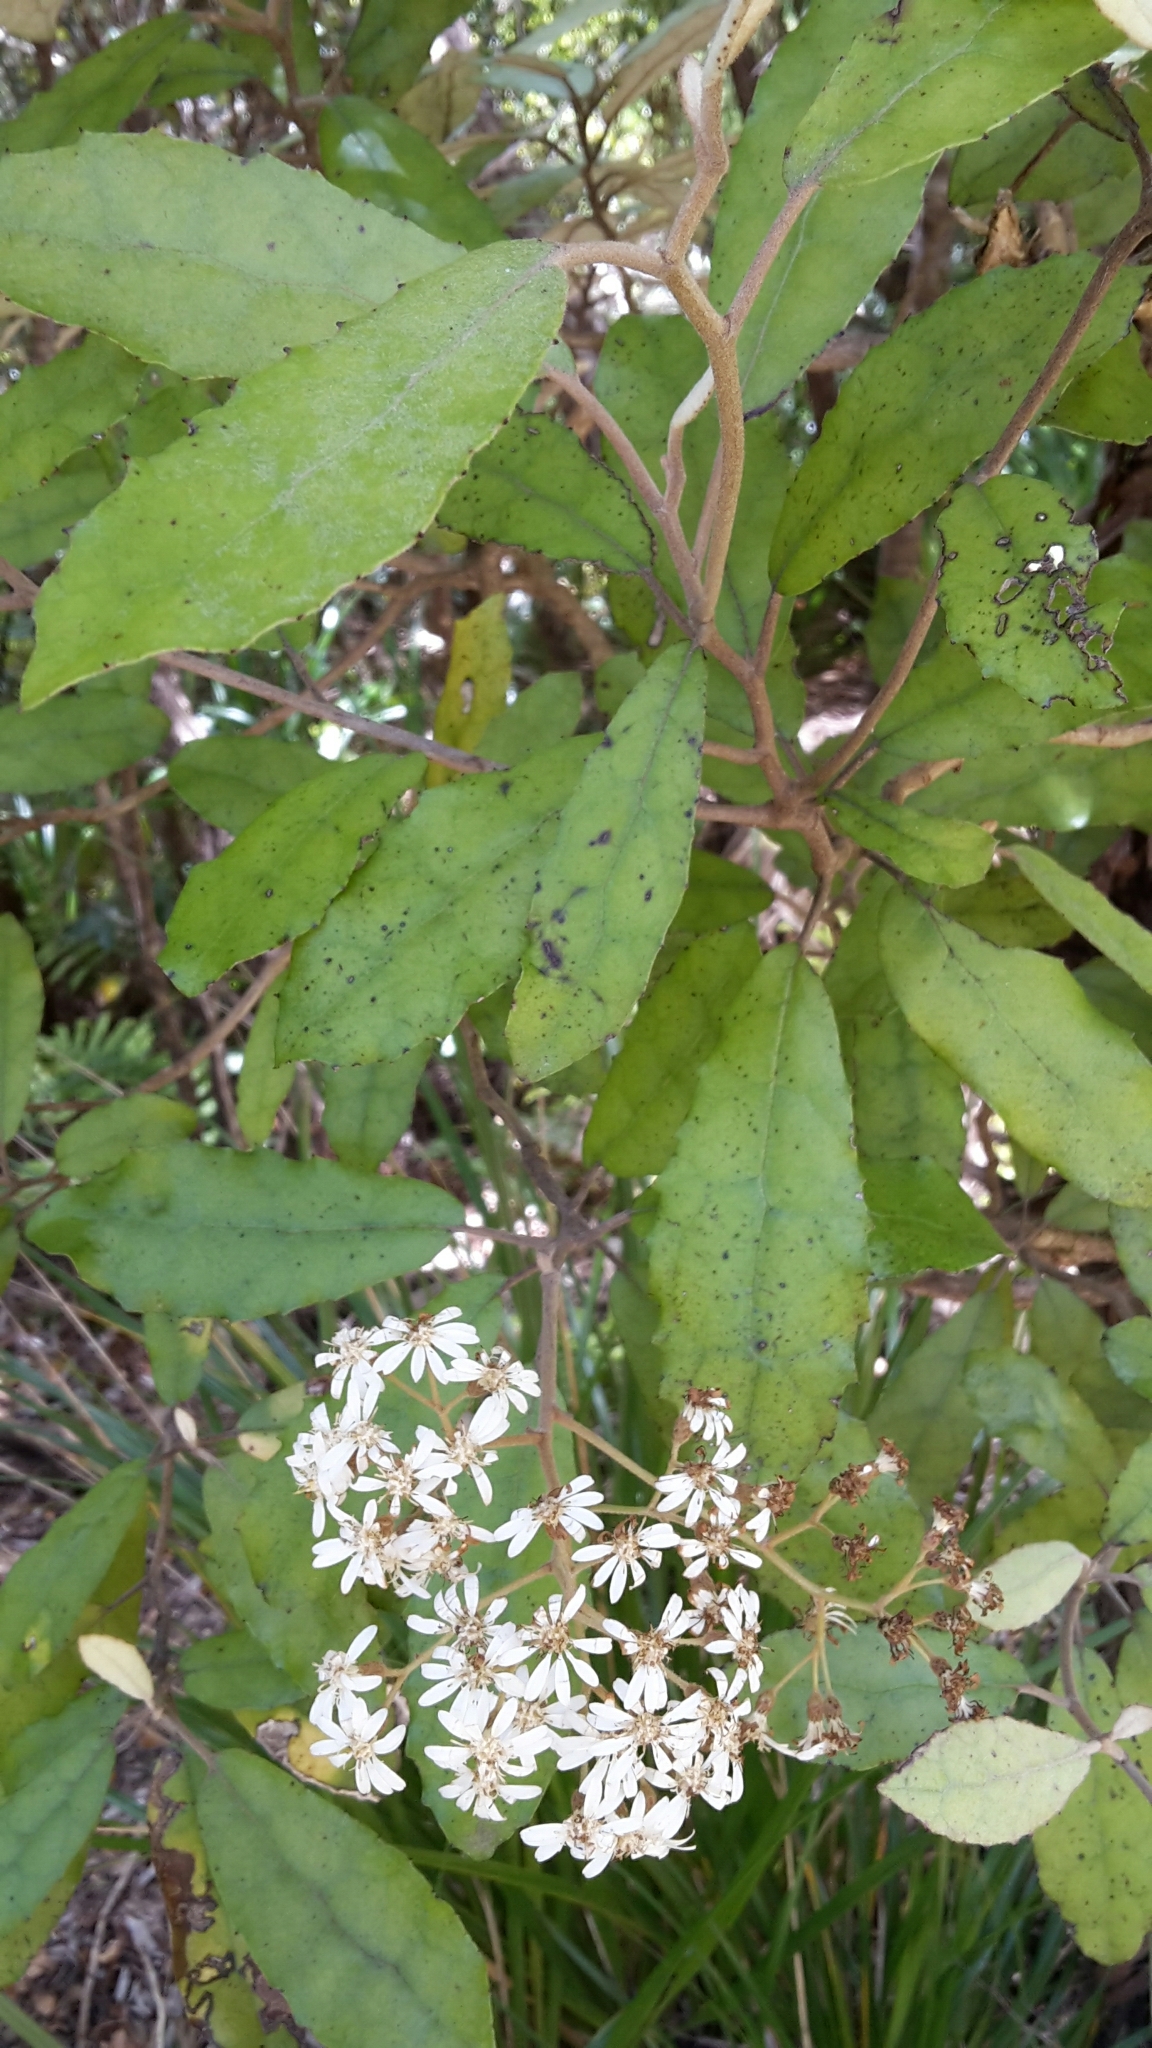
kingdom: Plantae
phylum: Tracheophyta
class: Magnoliopsida
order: Asterales
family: Asteraceae
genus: Olearia
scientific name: Olearia rani
